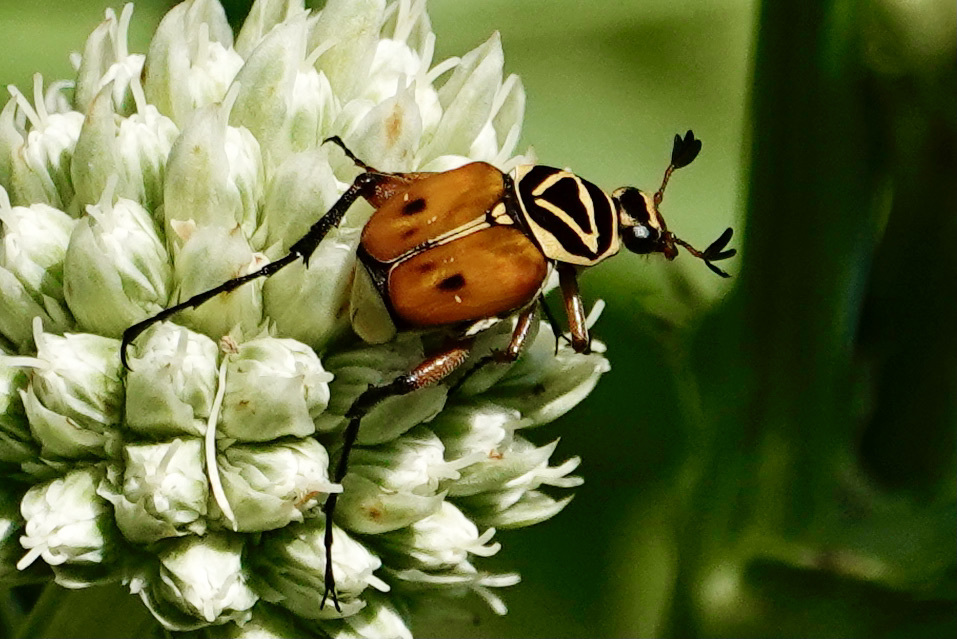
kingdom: Animalia
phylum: Arthropoda
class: Insecta
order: Coleoptera
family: Scarabaeidae
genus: Trigonopeltastes
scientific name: Trigonopeltastes delta
